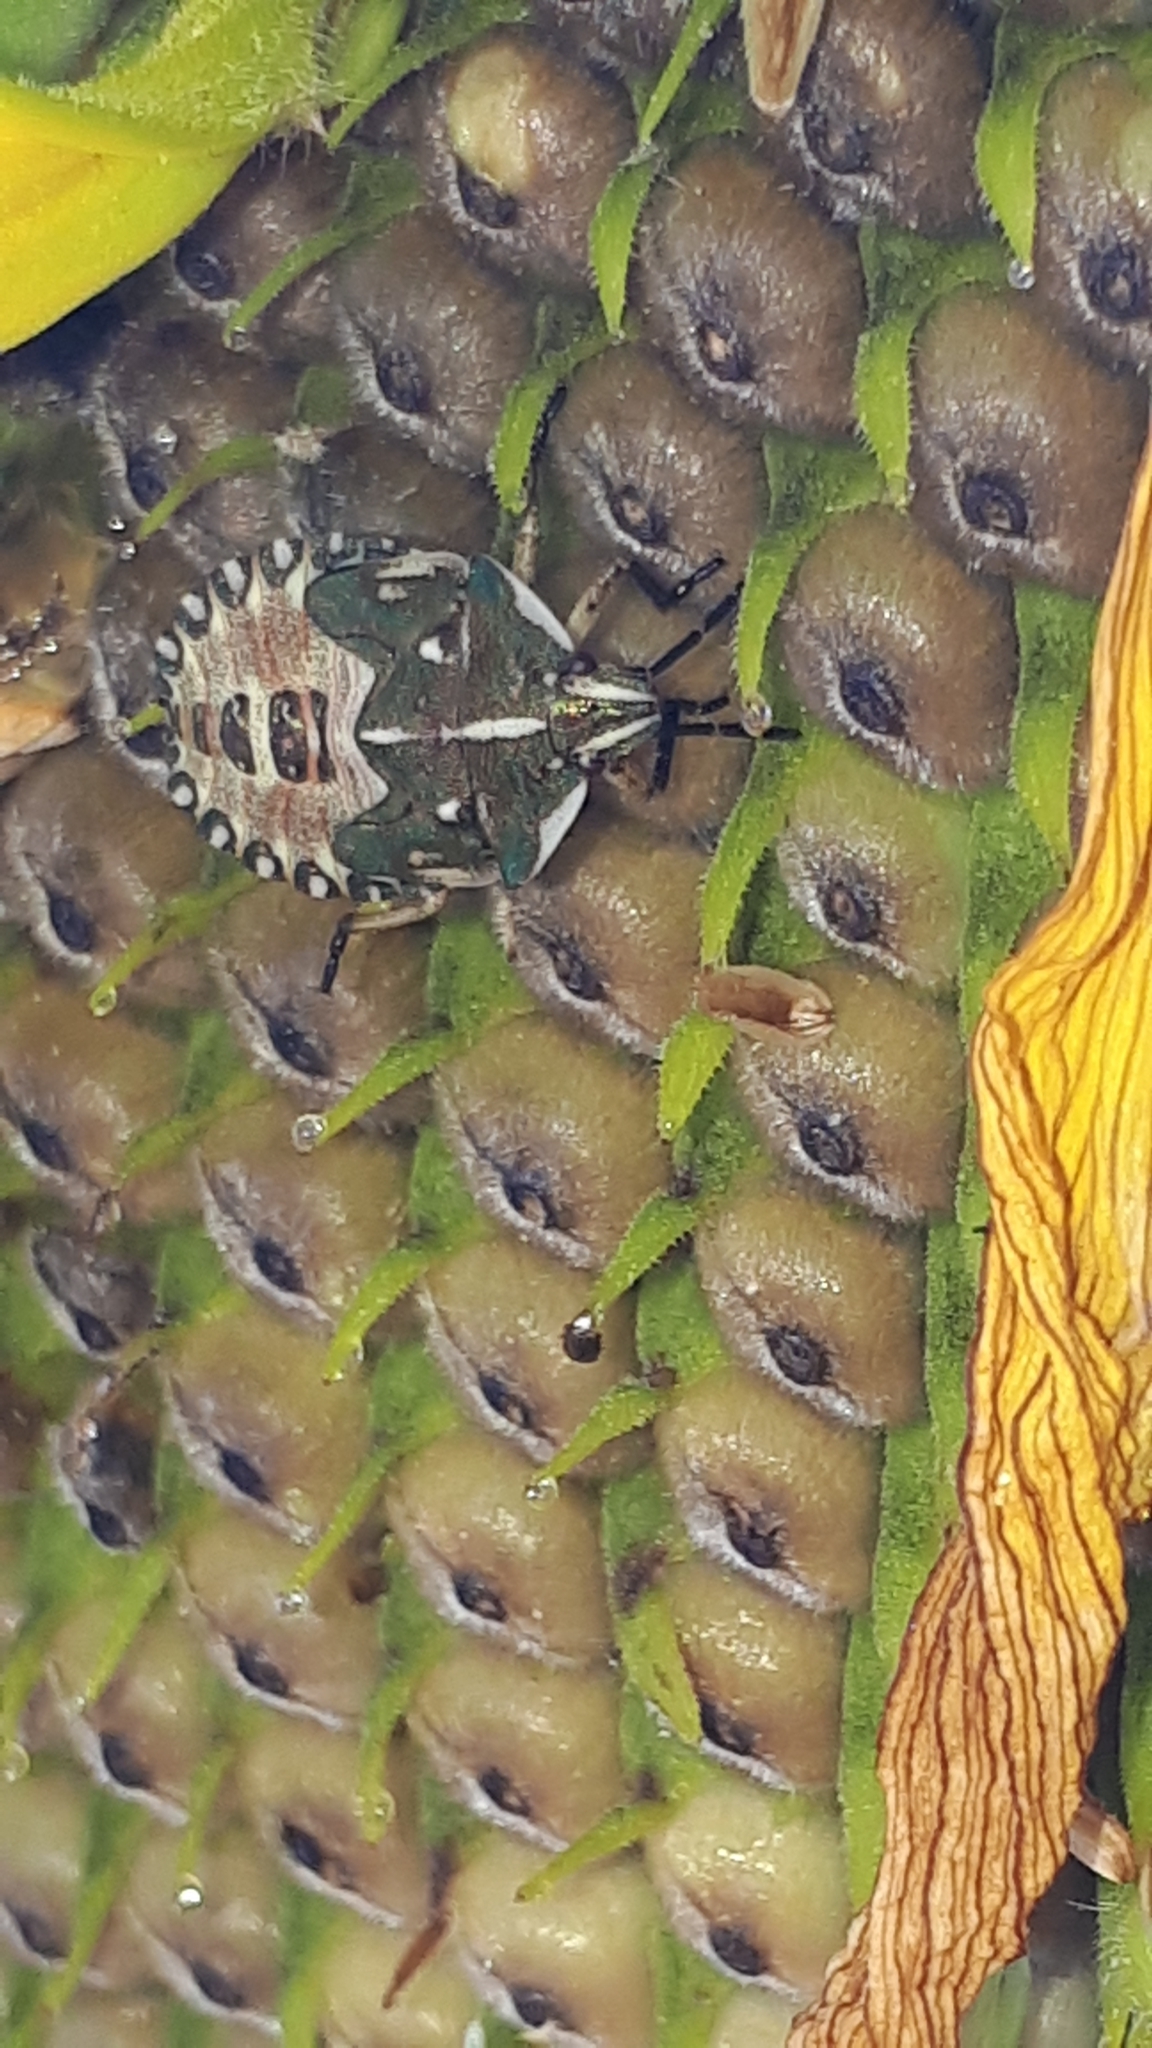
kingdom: Animalia
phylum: Arthropoda
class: Insecta
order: Hemiptera
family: Pentatomidae
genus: Carpocoris
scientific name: Carpocoris fuscispinus
